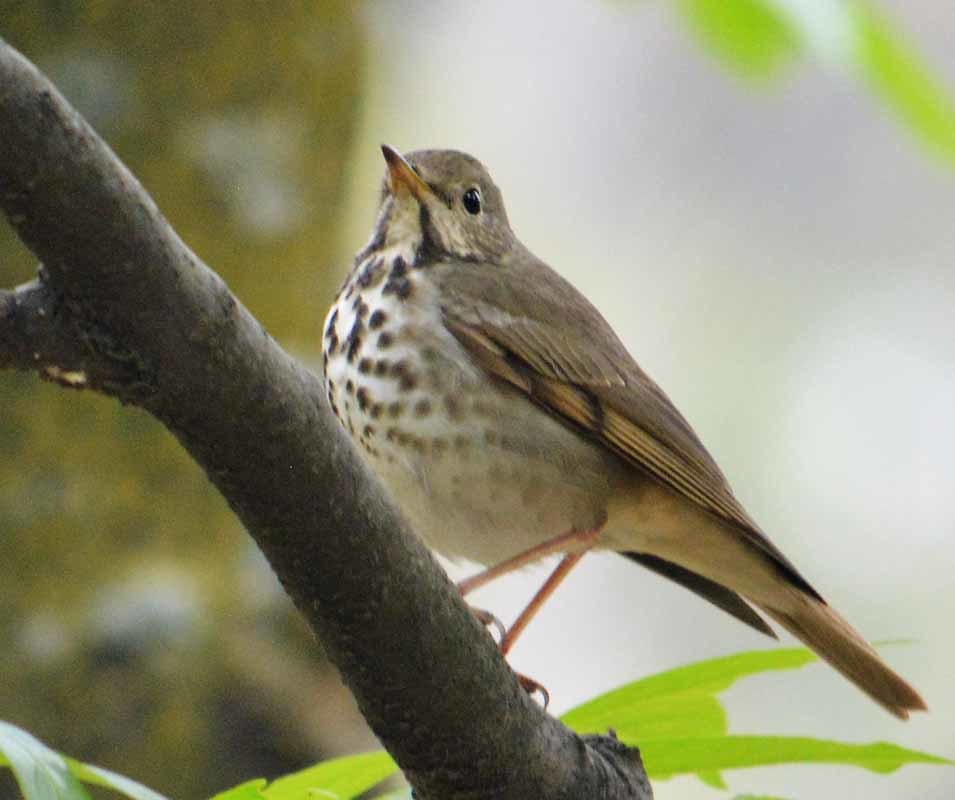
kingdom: Animalia
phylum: Chordata
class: Aves
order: Passeriformes
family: Turdidae
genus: Catharus
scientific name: Catharus guttatus
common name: Hermit thrush
